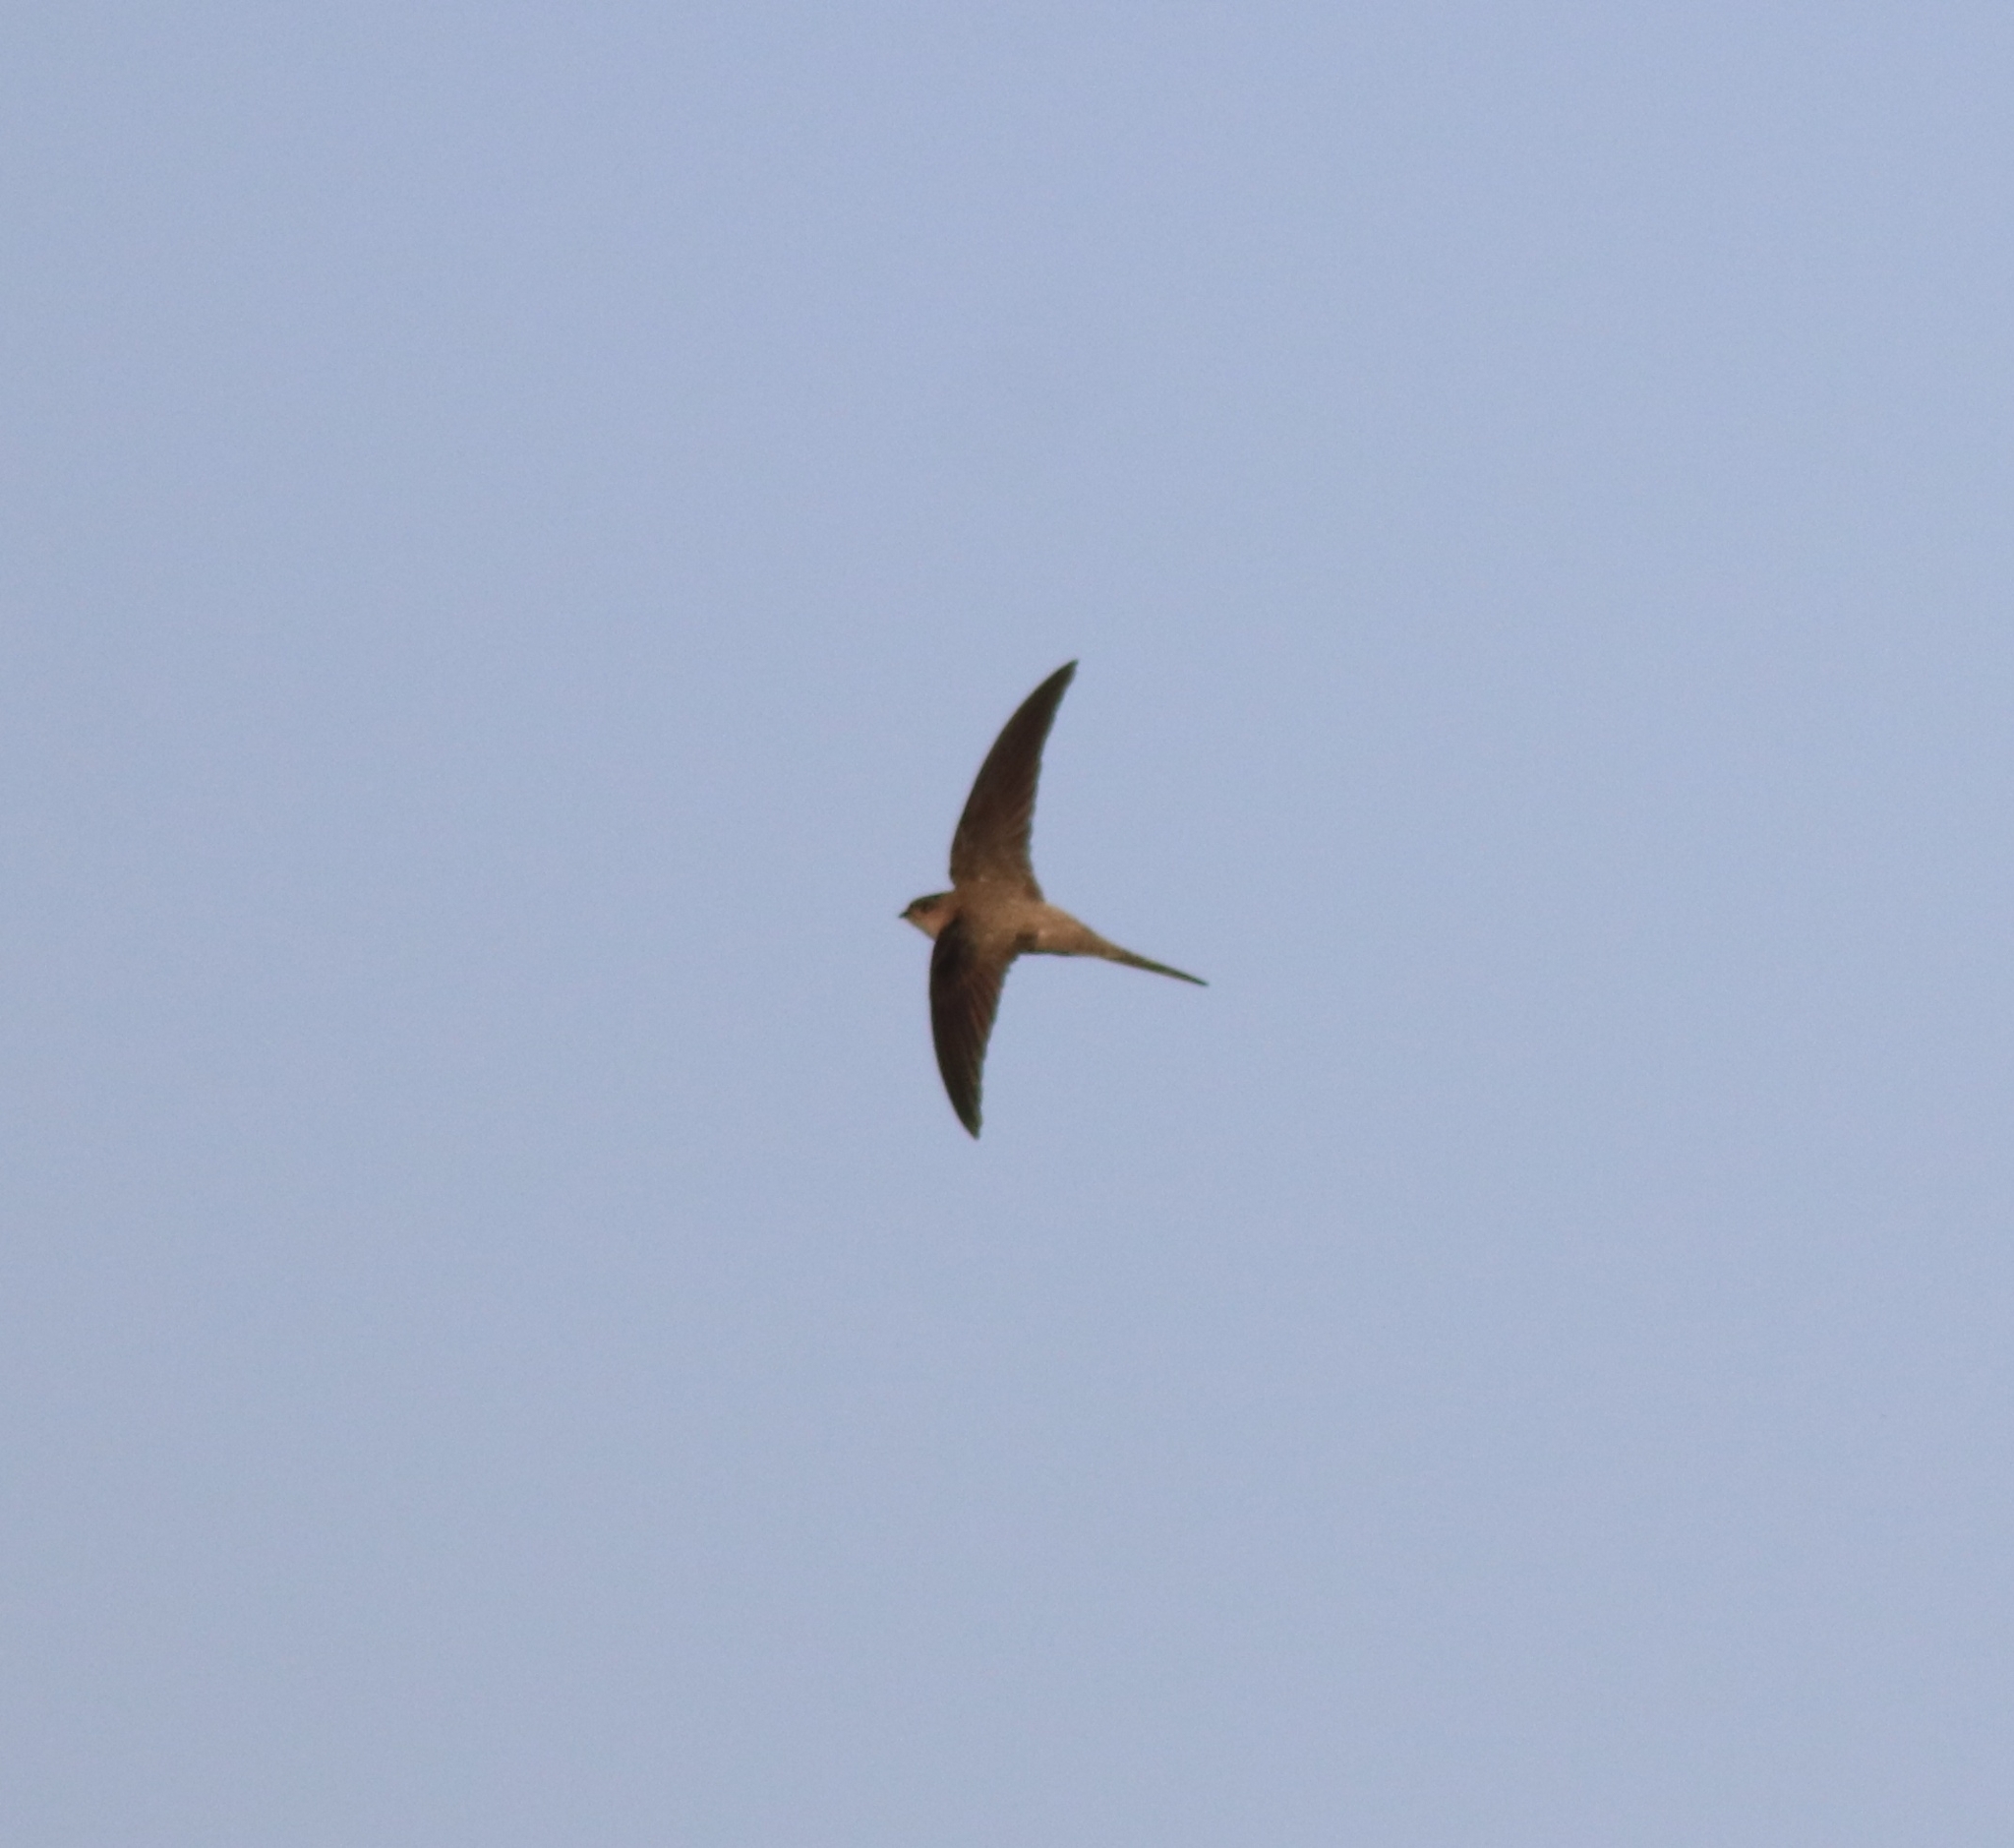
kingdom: Animalia
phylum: Chordata
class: Aves
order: Apodiformes
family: Apodidae
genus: Cypsiurus
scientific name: Cypsiurus balasiensis
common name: Asian palm swift
